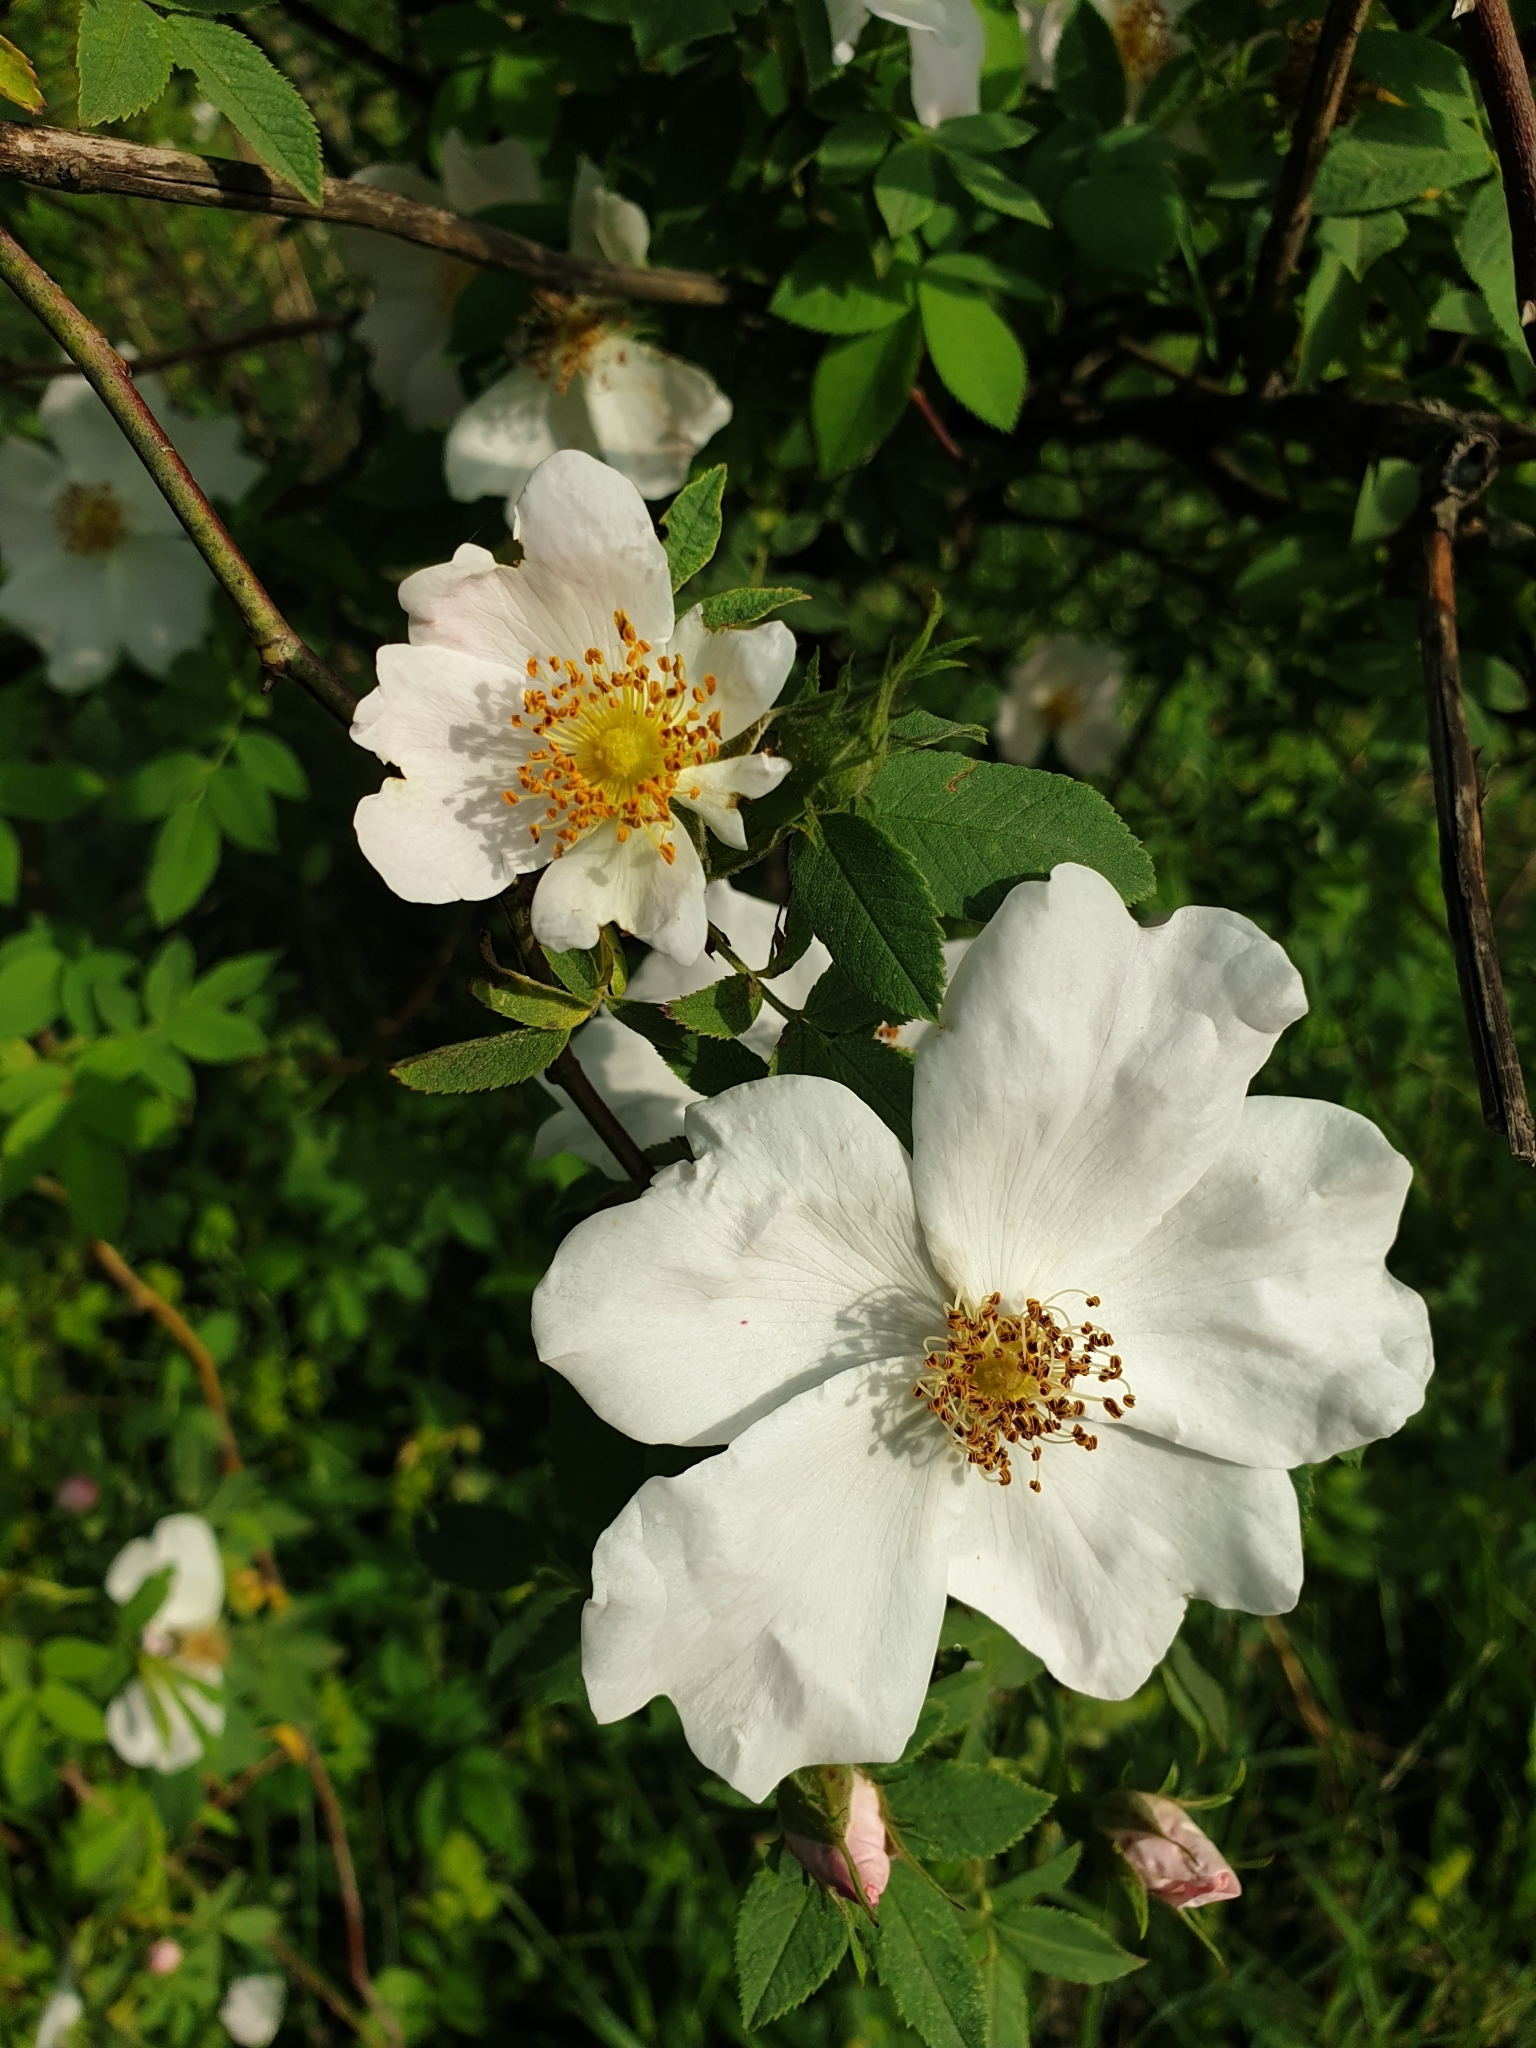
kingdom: Plantae
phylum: Tracheophyta
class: Magnoliopsida
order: Rosales
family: Rosaceae
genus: Rosa
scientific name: Rosa
